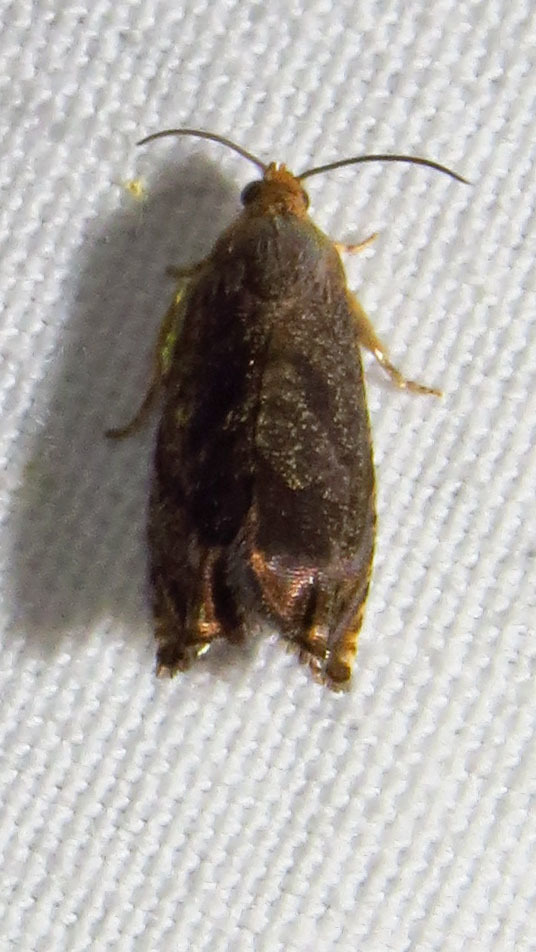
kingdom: Animalia
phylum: Arthropoda
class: Insecta
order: Lepidoptera
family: Tortricidae
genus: Cydia
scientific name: Cydia caryana
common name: Hickory shuckworm moth
